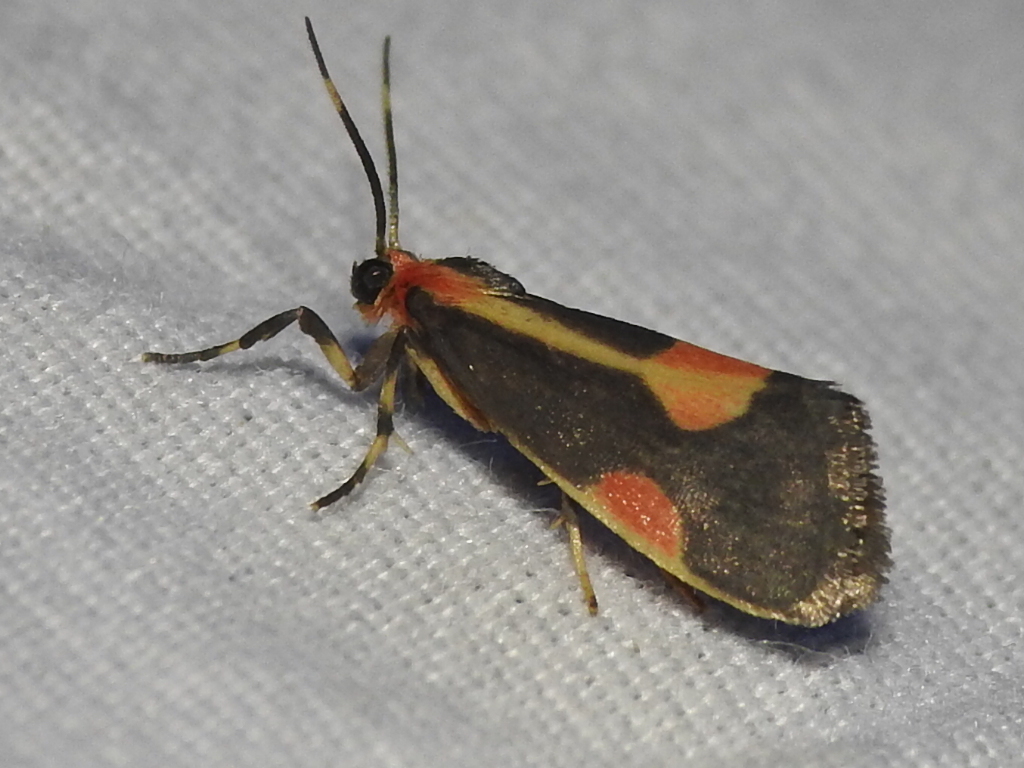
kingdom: Animalia
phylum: Arthropoda
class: Insecta
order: Lepidoptera
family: Erebidae
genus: Cisthene
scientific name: Cisthene packardii
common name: Packard's lichen moth
